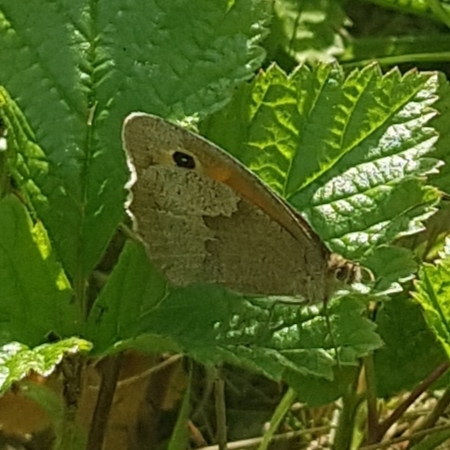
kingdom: Animalia
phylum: Arthropoda
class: Insecta
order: Lepidoptera
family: Nymphalidae
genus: Maniola
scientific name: Maniola jurtina
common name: Meadow brown
